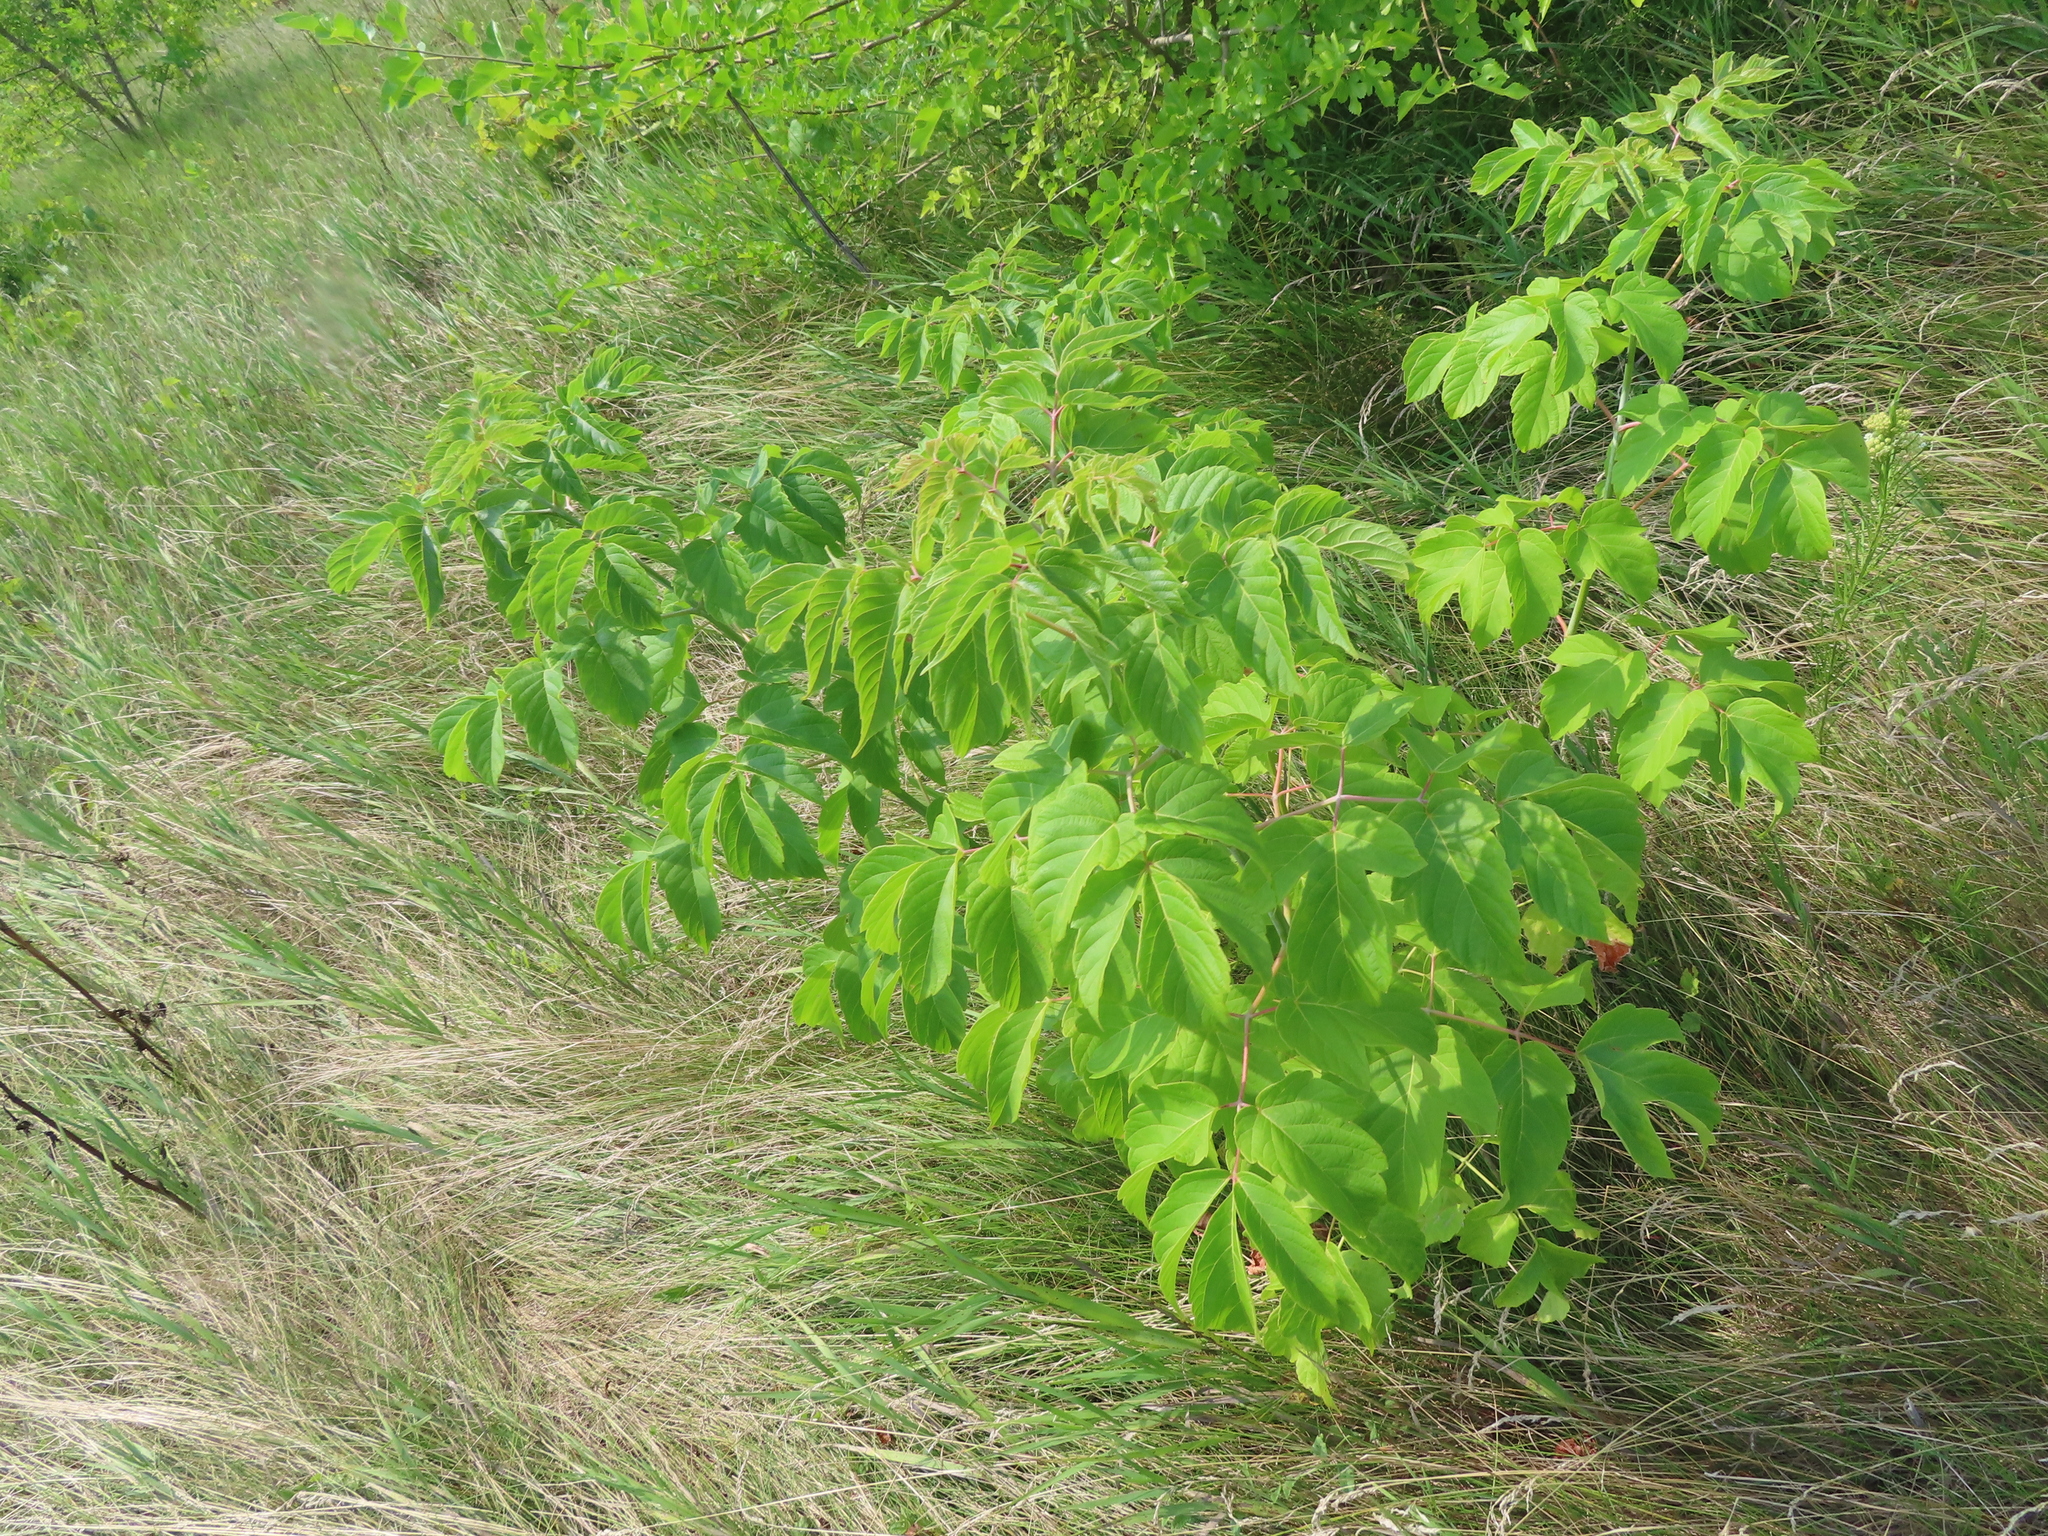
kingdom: Plantae
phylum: Tracheophyta
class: Magnoliopsida
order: Sapindales
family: Sapindaceae
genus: Acer
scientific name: Acer negundo
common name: Ashleaf maple
